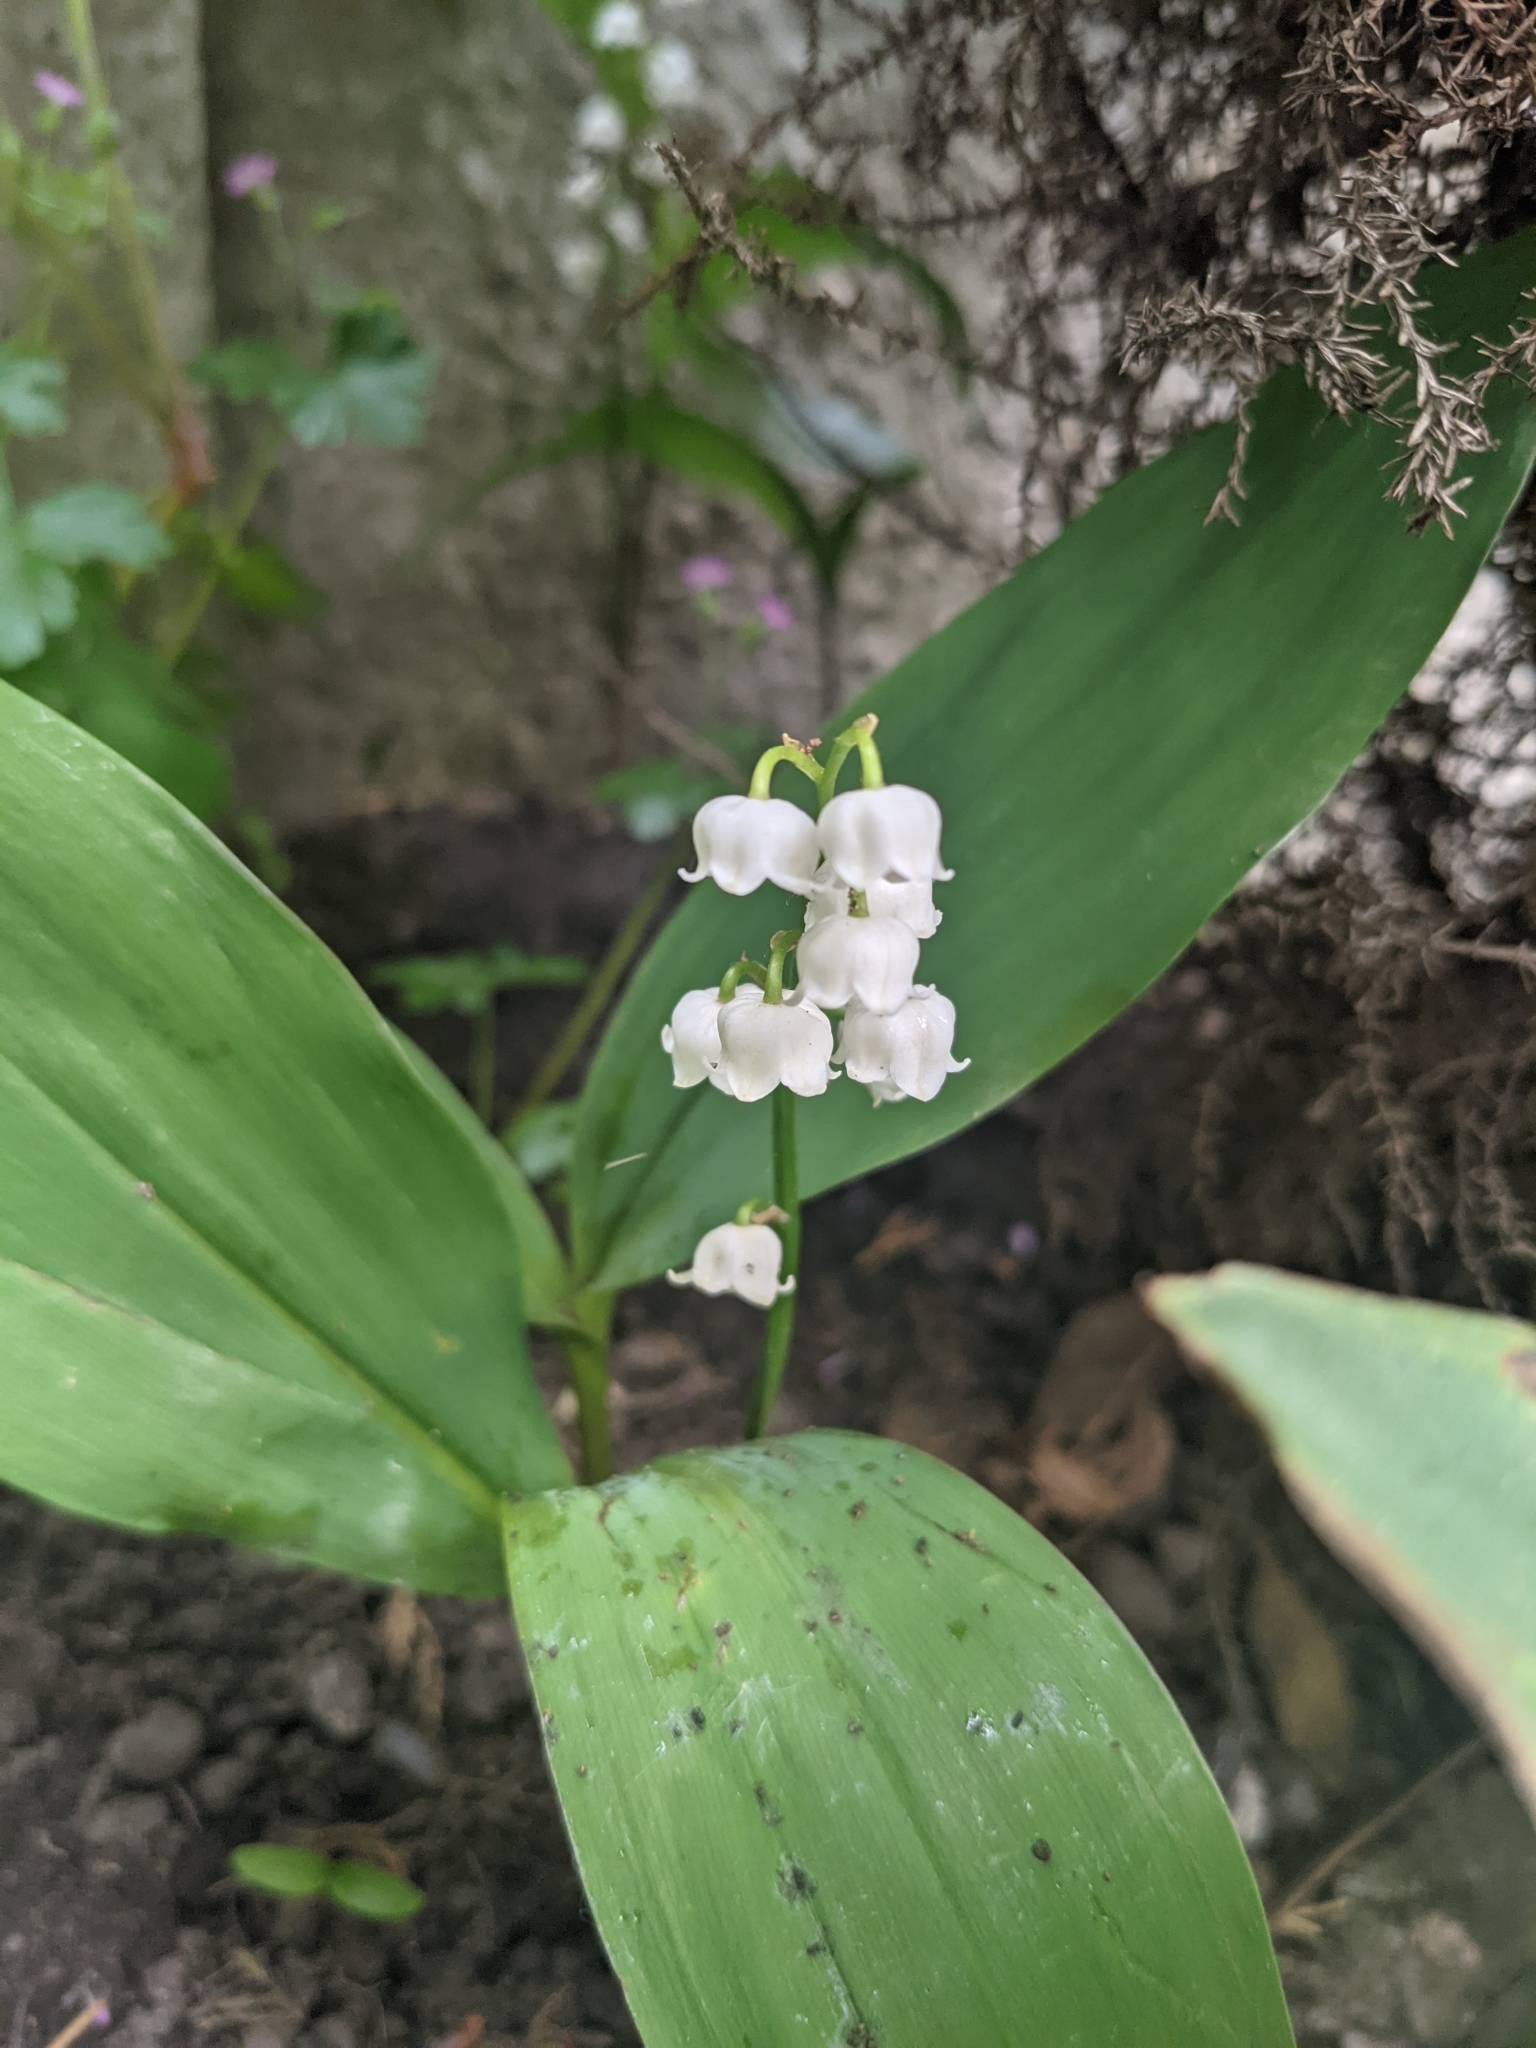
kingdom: Plantae
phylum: Tracheophyta
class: Liliopsida
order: Asparagales
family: Asparagaceae
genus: Convallaria
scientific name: Convallaria majalis
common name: Lily-of-the-valley
